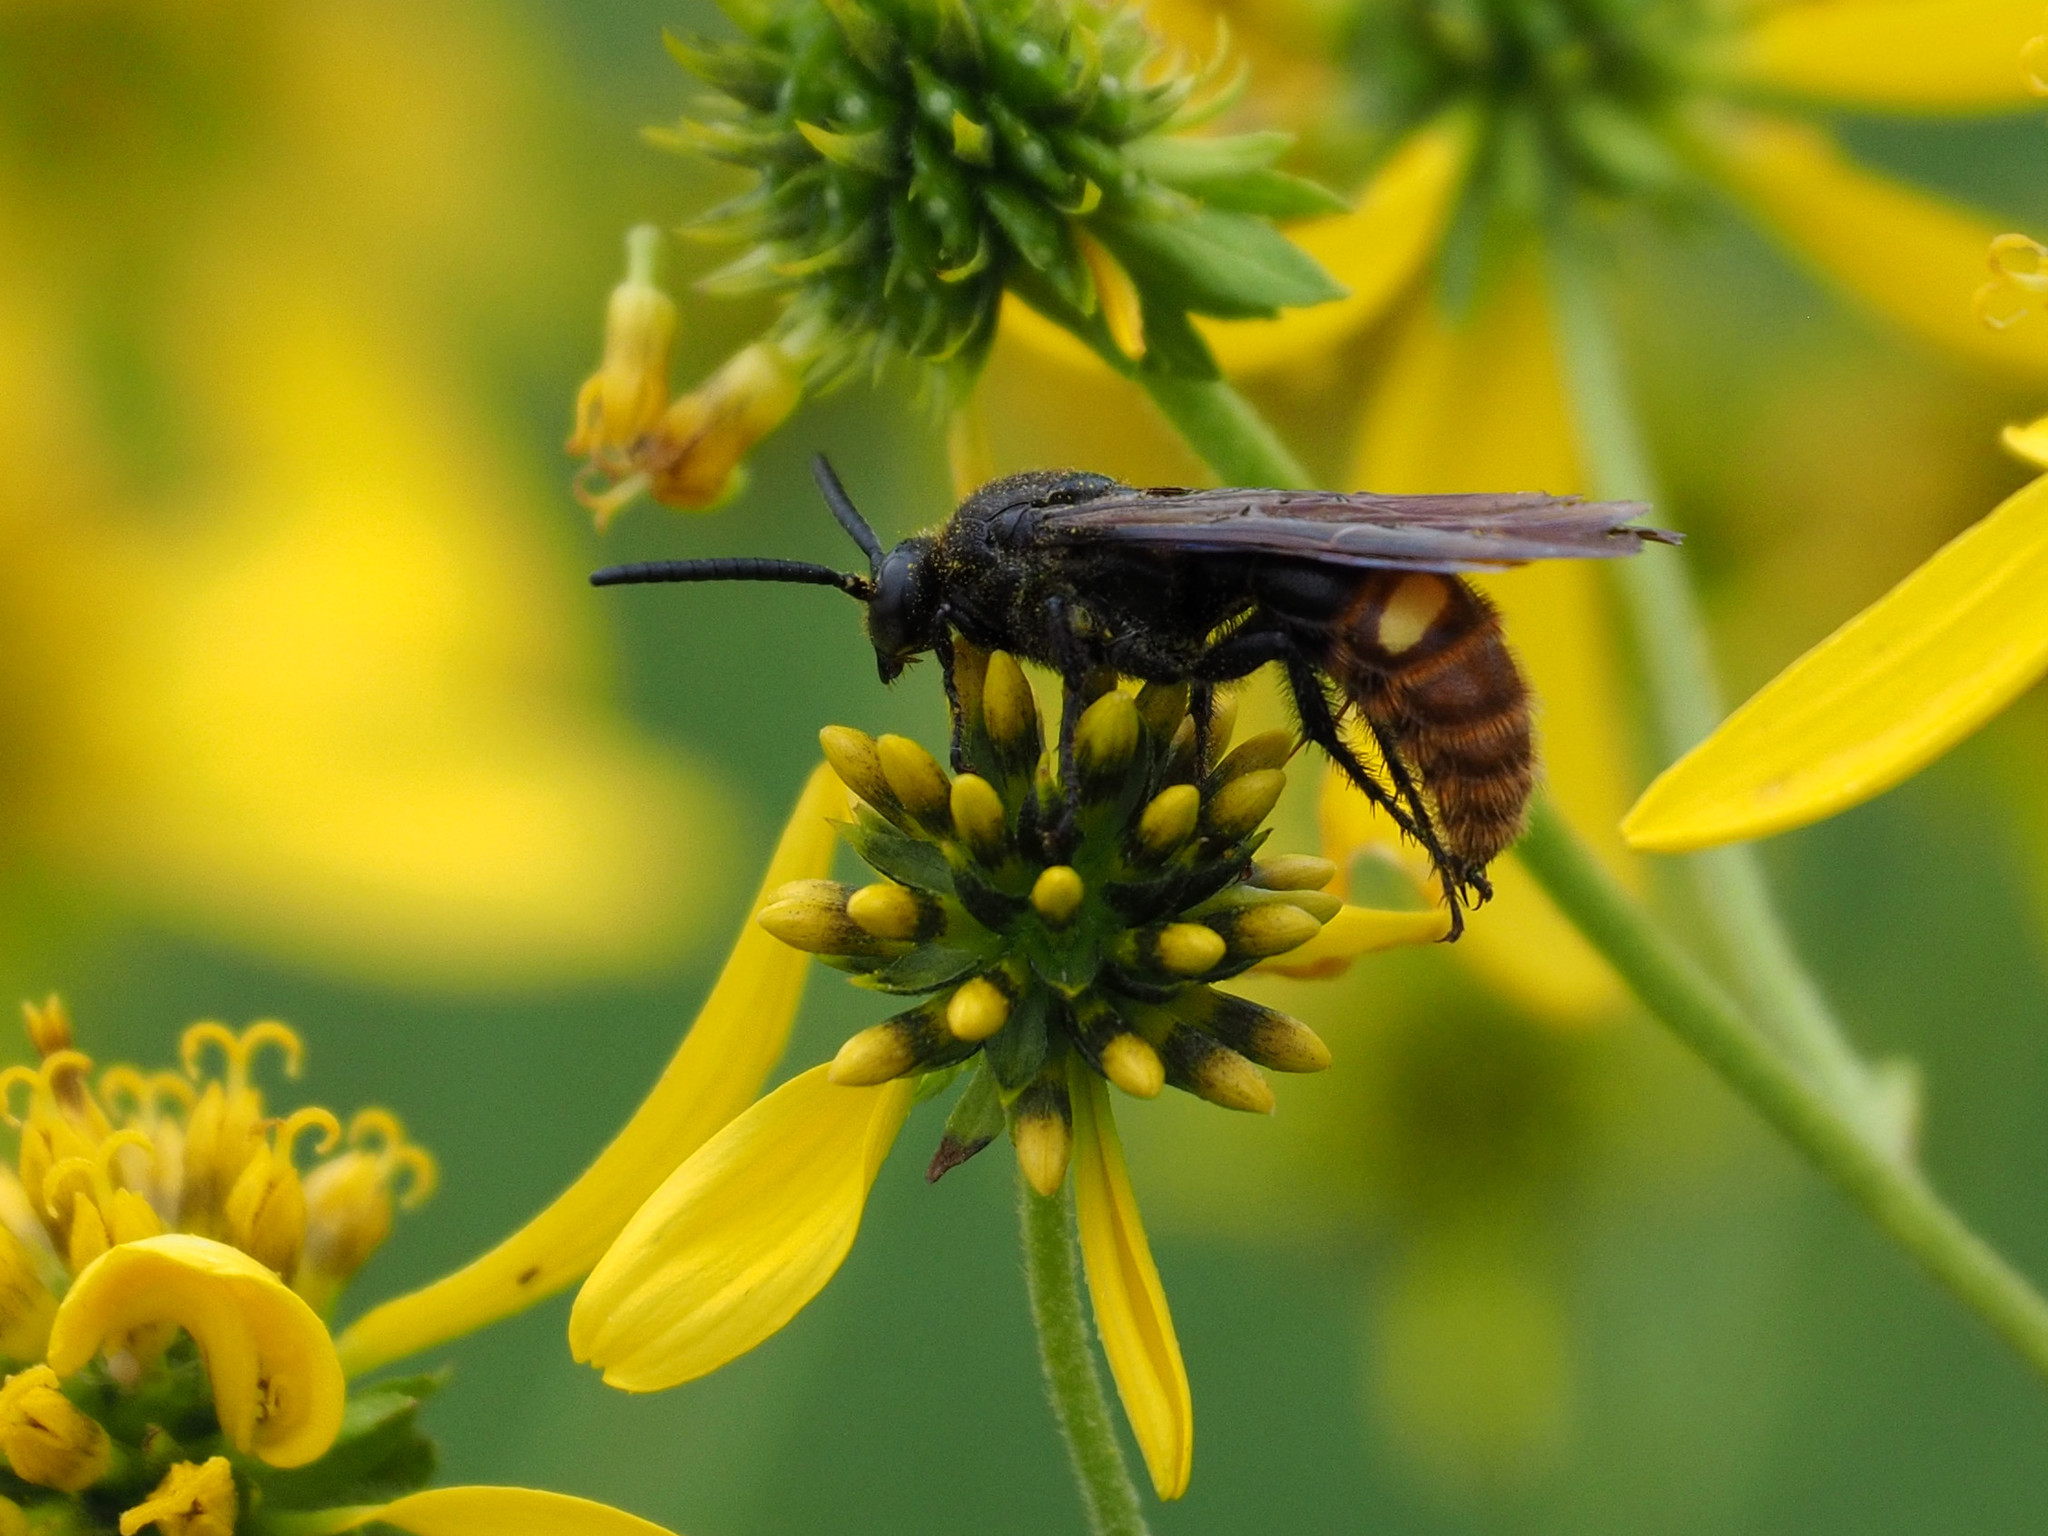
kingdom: Animalia
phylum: Arthropoda
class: Insecta
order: Hymenoptera
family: Scoliidae
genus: Scolia
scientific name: Scolia dubia
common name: Blue-winged scoliid wasp
